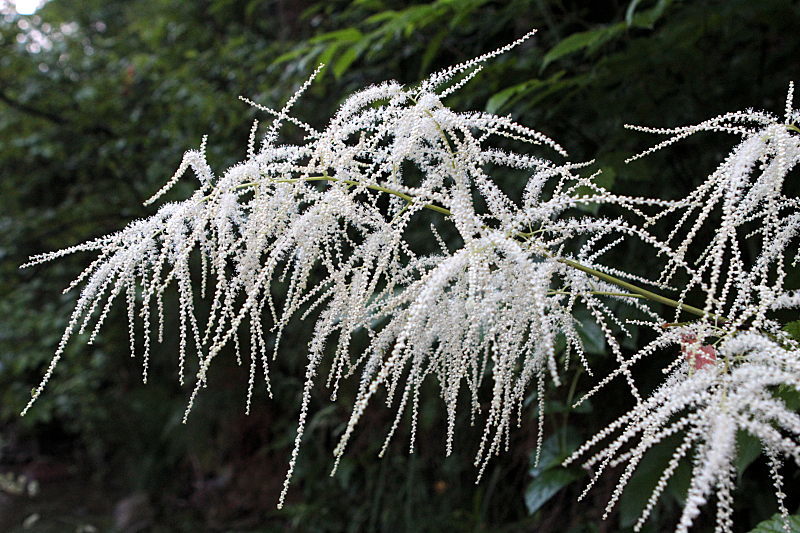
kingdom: Plantae
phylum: Tracheophyta
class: Magnoliopsida
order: Rosales
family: Rosaceae
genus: Aruncus
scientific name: Aruncus dioicus
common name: Buck's-beard
